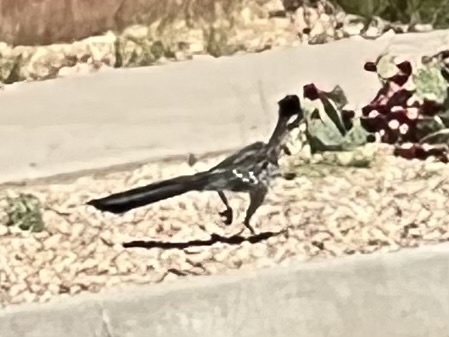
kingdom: Animalia
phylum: Chordata
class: Aves
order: Cuculiformes
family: Cuculidae
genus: Geococcyx
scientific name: Geococcyx californianus
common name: Greater roadrunner
